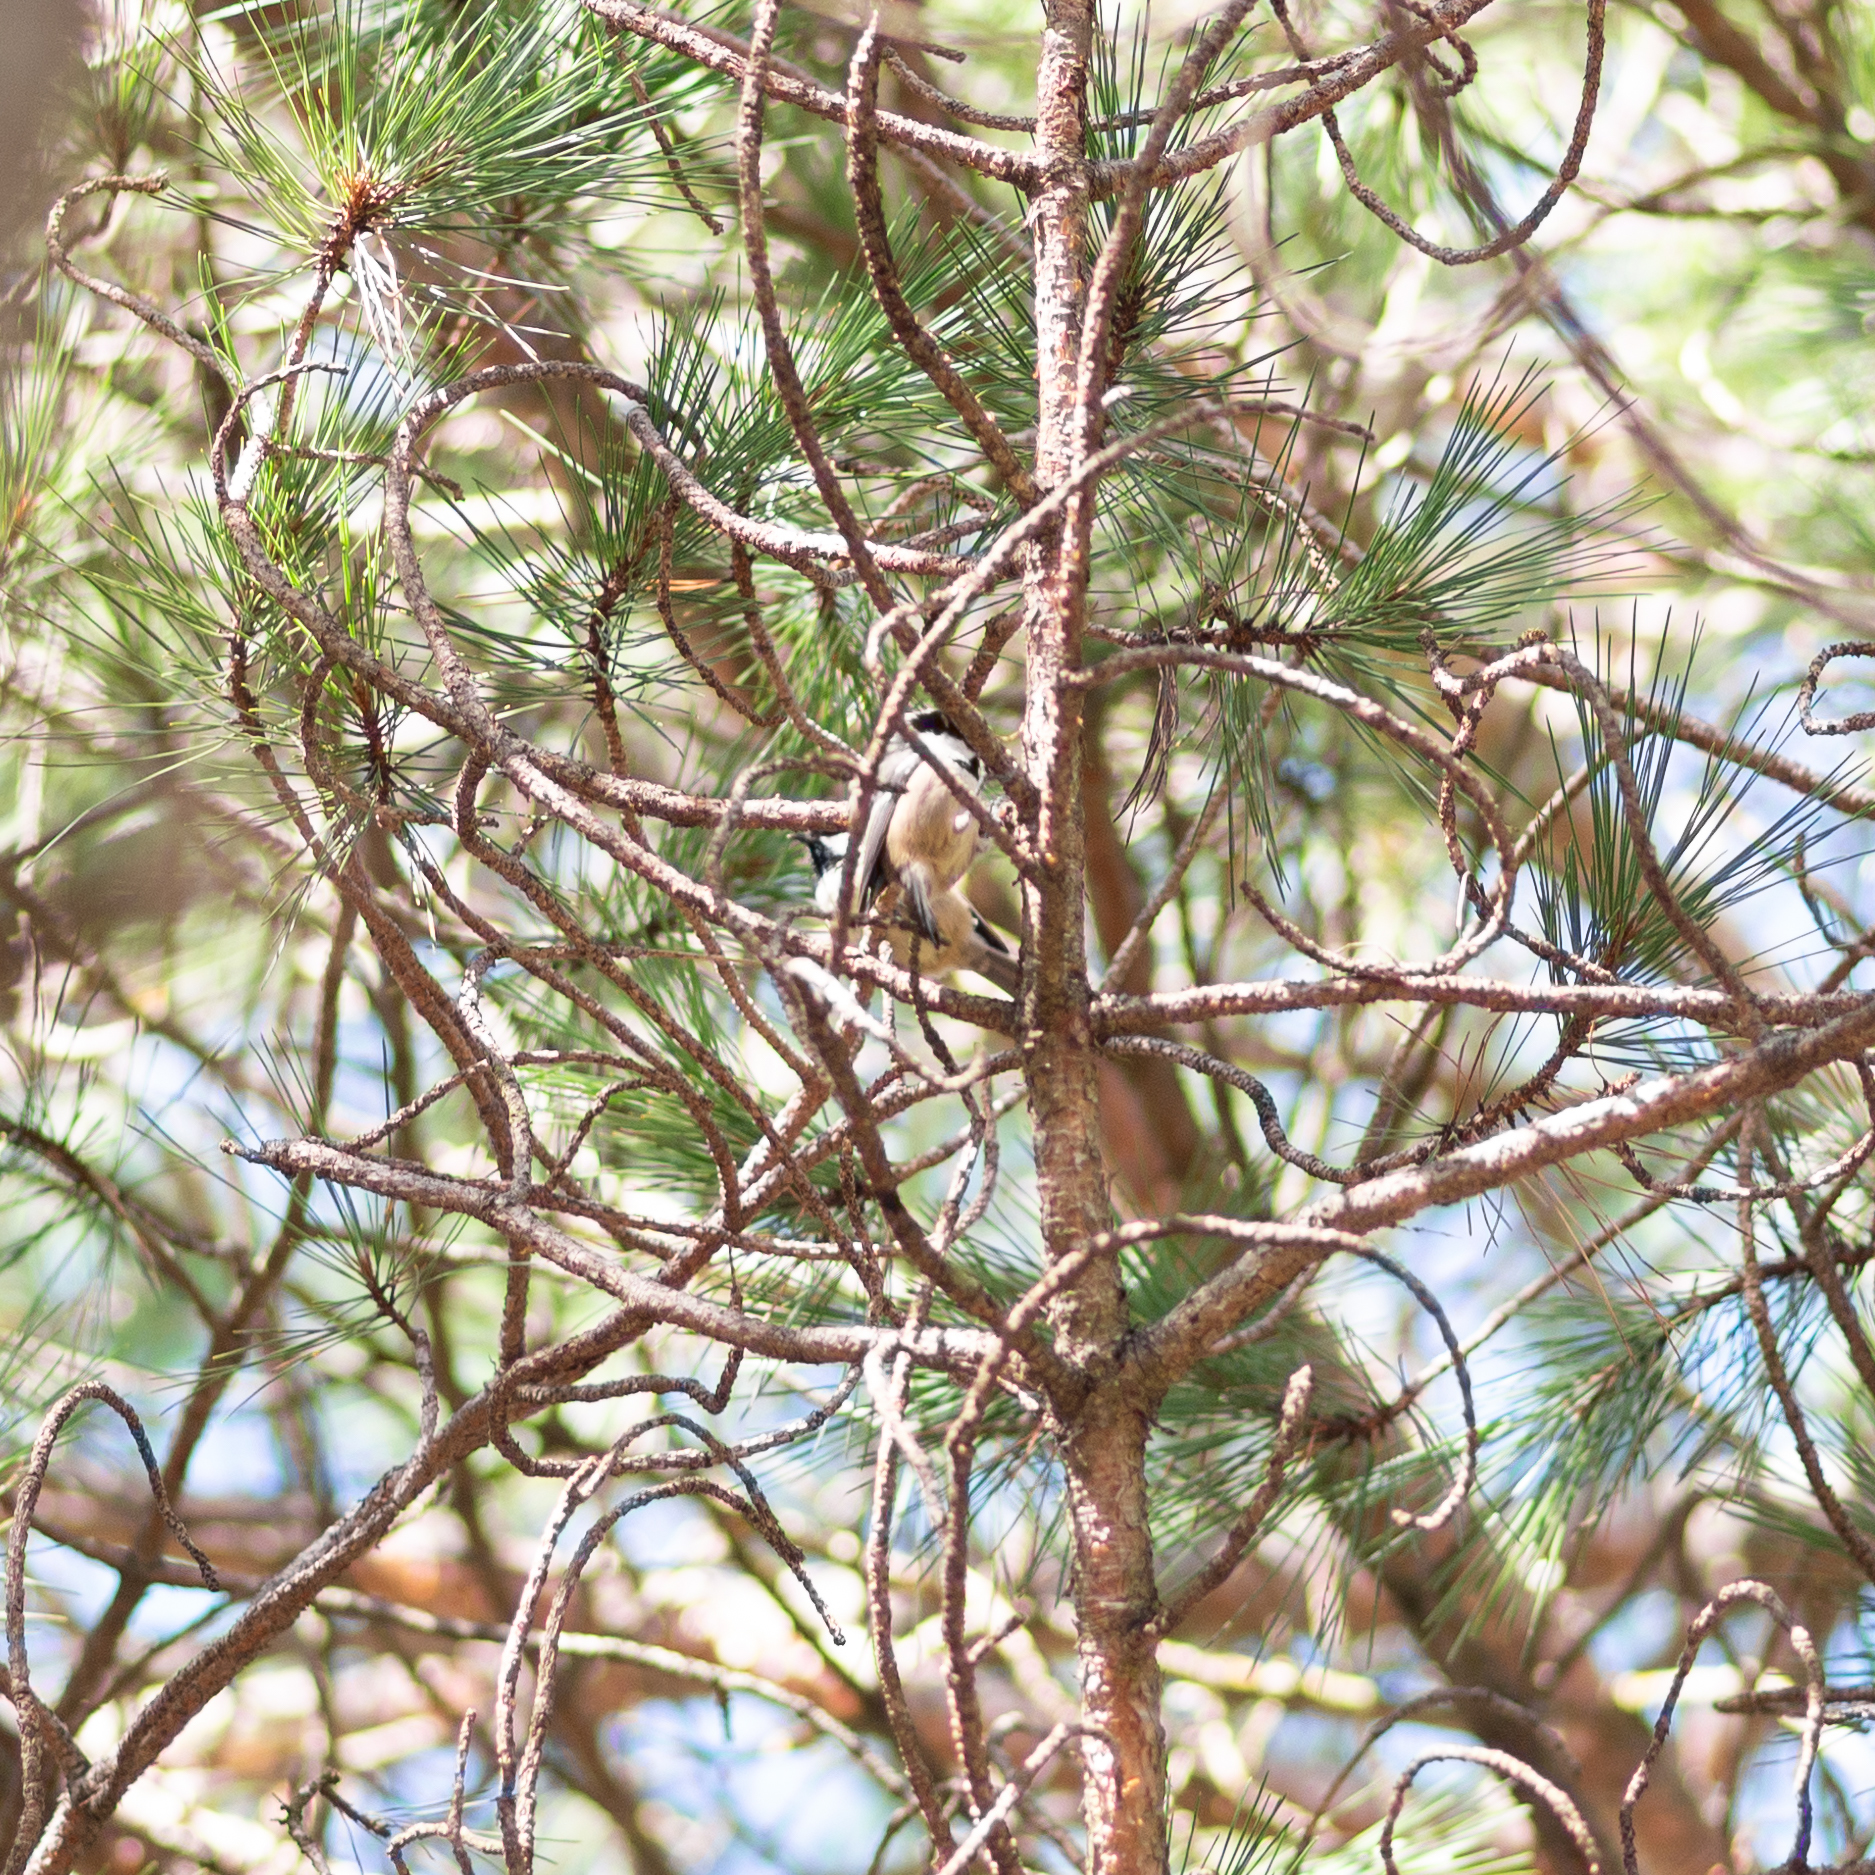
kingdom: Animalia
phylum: Chordata
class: Aves
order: Passeriformes
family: Paridae
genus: Parus
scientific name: Parus major
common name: Great tit
